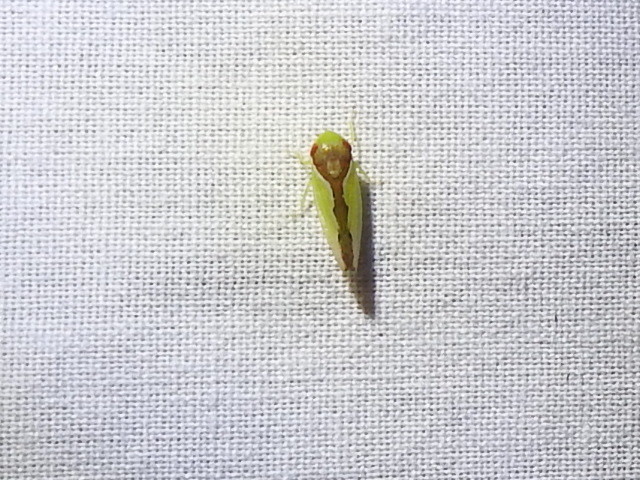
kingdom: Animalia
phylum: Arthropoda
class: Insecta
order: Hemiptera
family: Cicadellidae
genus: Omansobara ing
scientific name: Omansobara ing Omansobara palliolata
